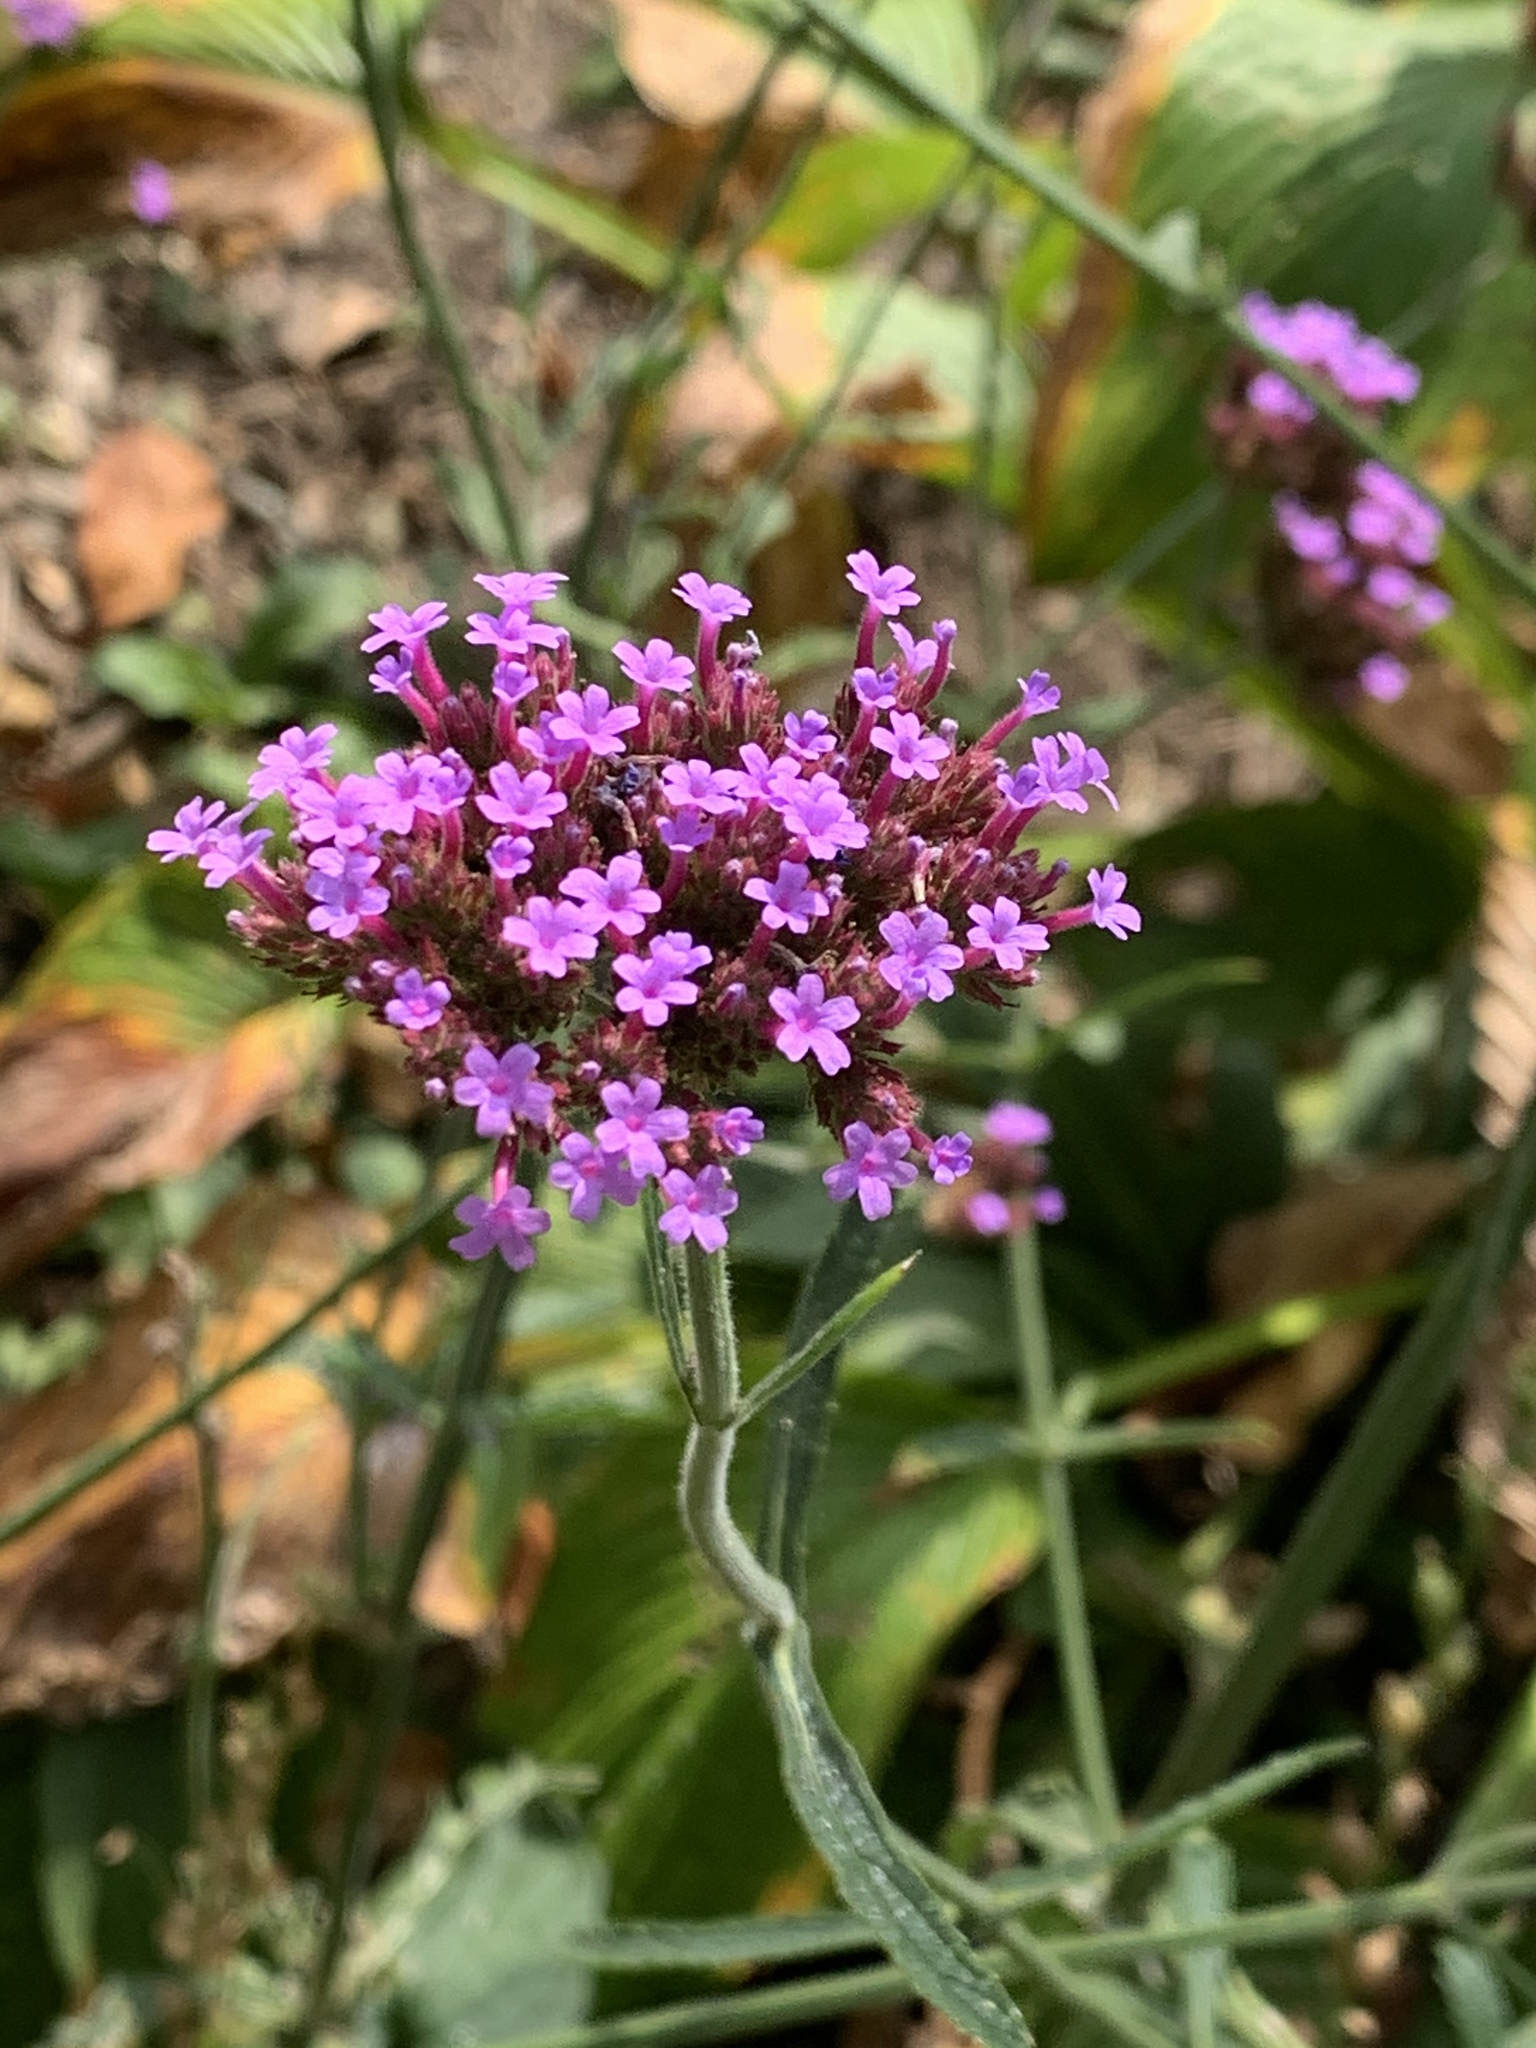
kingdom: Plantae
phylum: Tracheophyta
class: Magnoliopsida
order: Lamiales
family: Verbenaceae
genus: Verbena
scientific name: Verbena bonariensis
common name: Purpletop vervain
